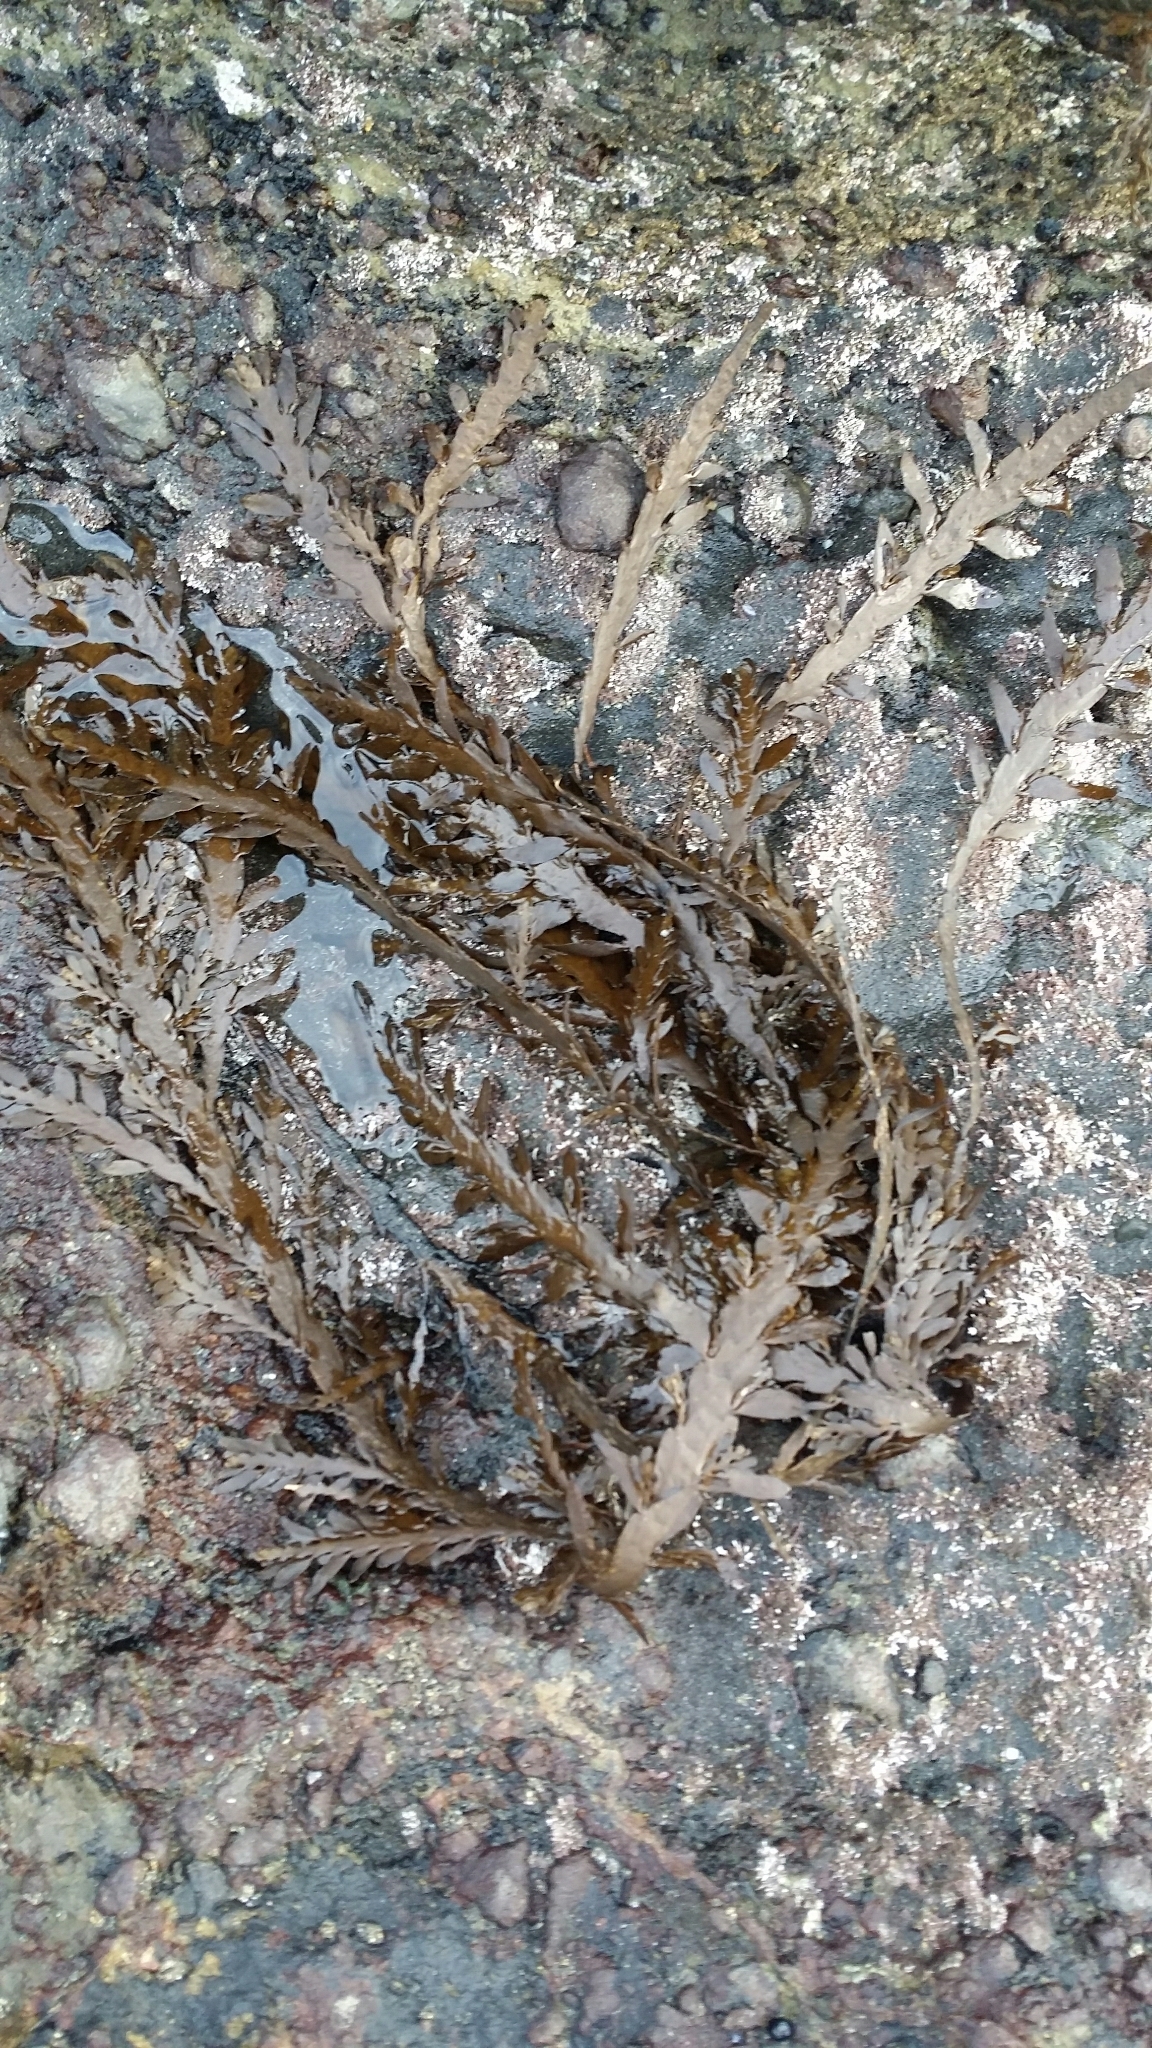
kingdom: Chromista
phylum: Ochrophyta
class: Phaeophyceae
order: Fucales
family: Sargassaceae
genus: Carpophyllum
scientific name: Carpophyllum maschalocarpum
